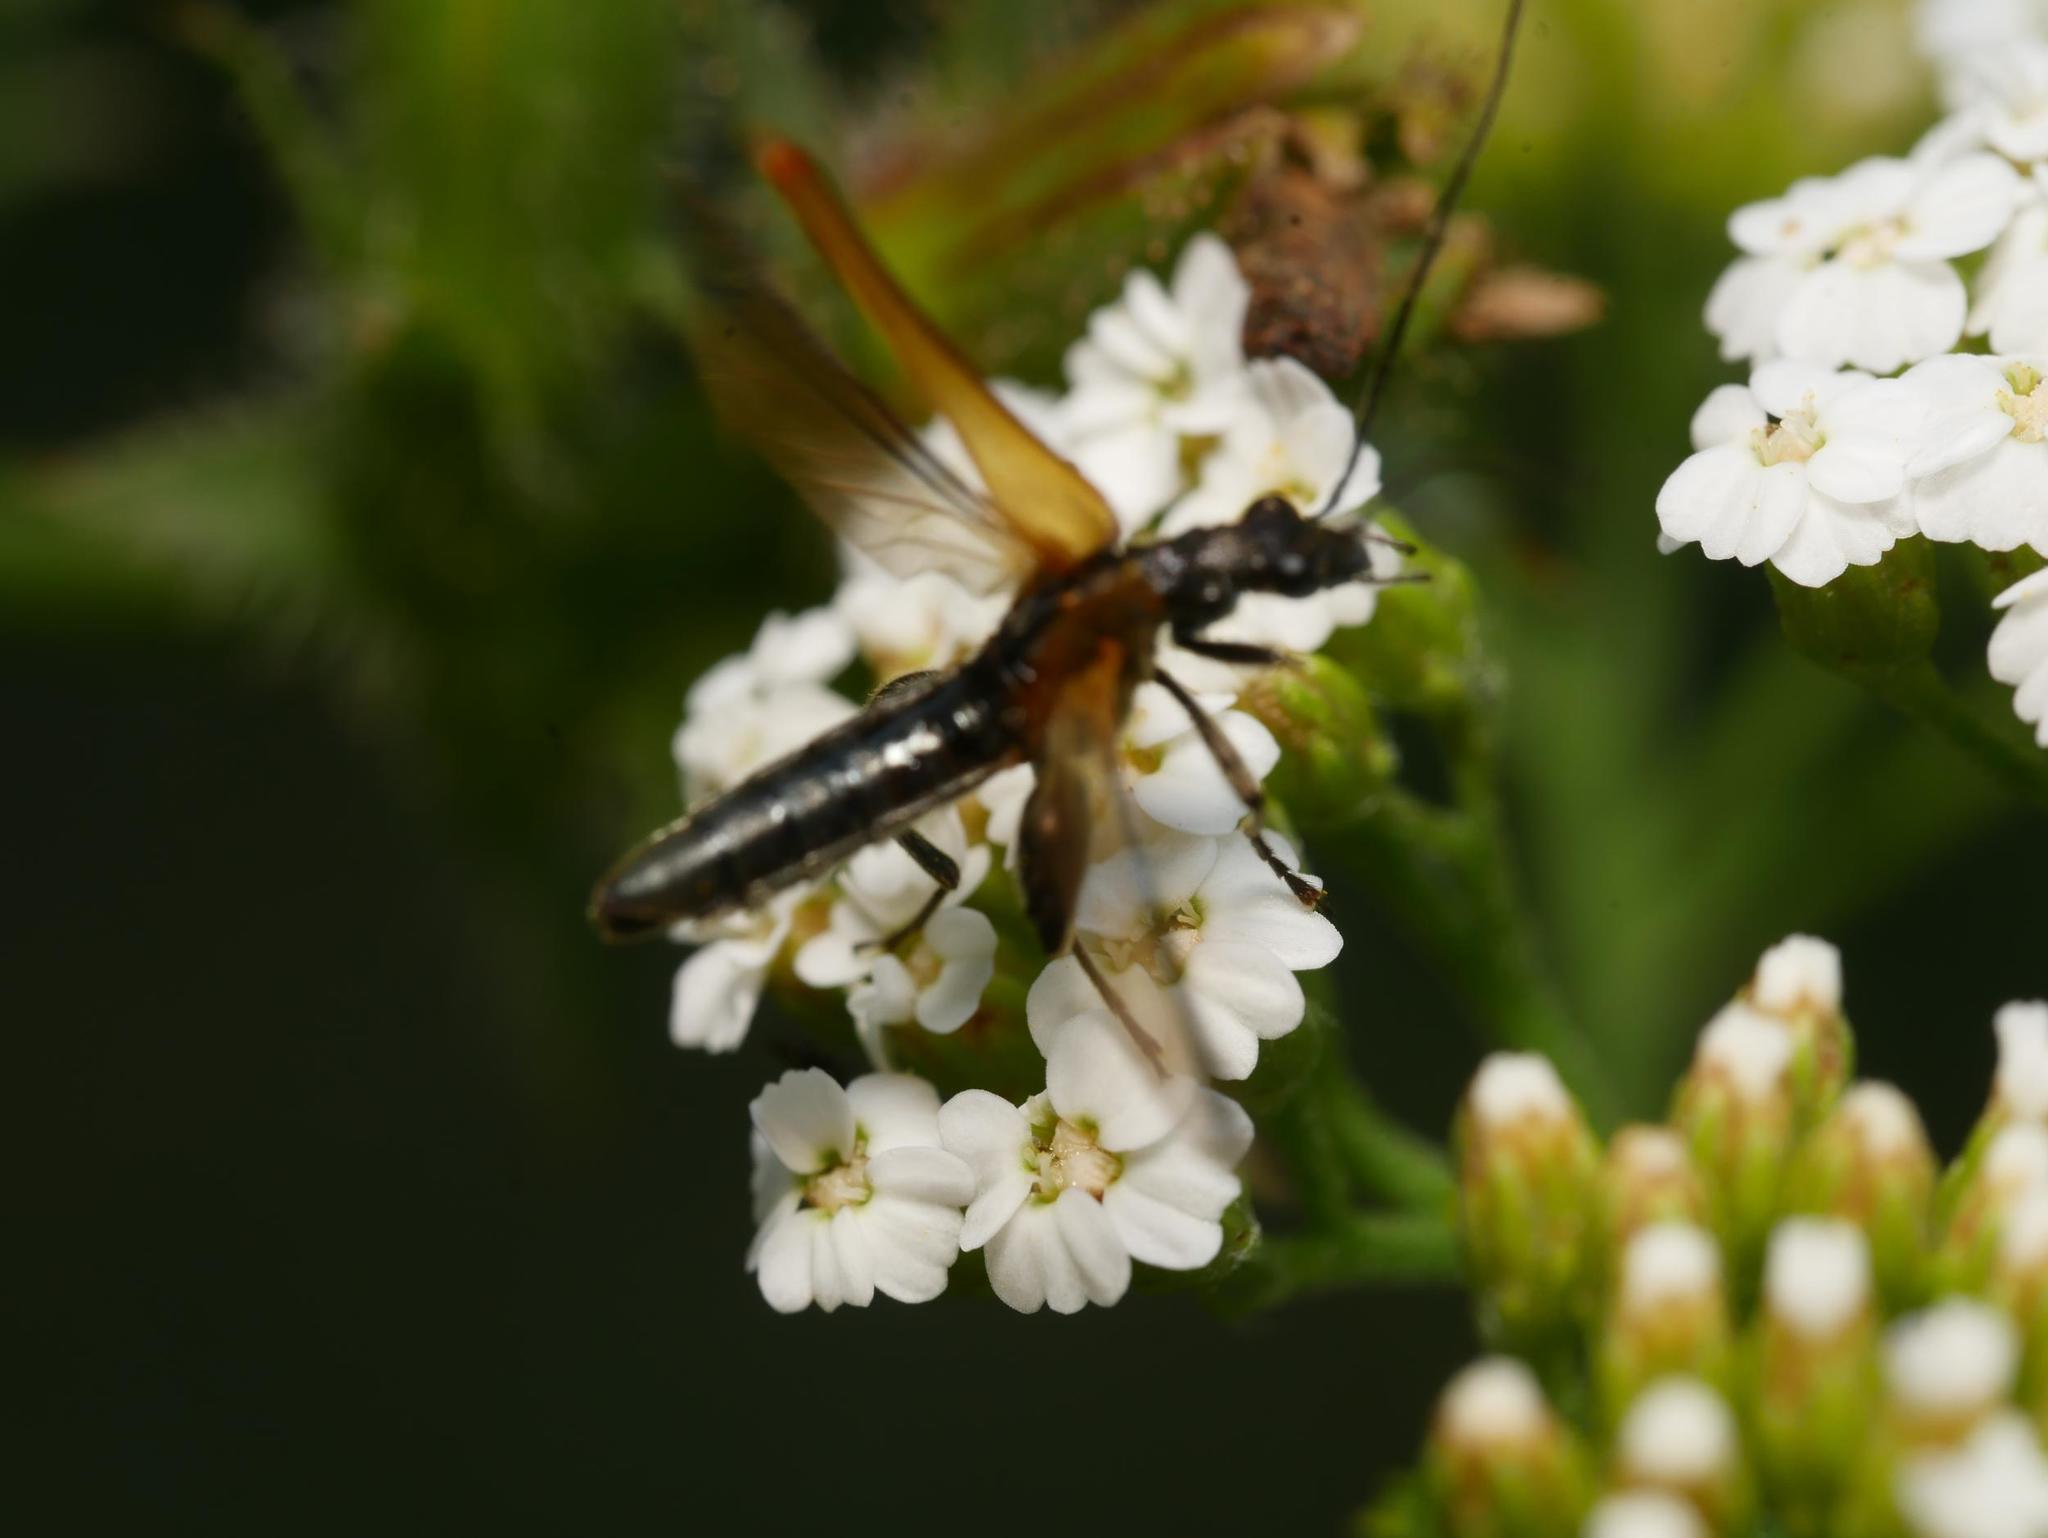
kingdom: Animalia
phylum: Arthropoda
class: Insecta
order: Coleoptera
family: Oedemeridae
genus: Oedemera
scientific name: Oedemera femorata
